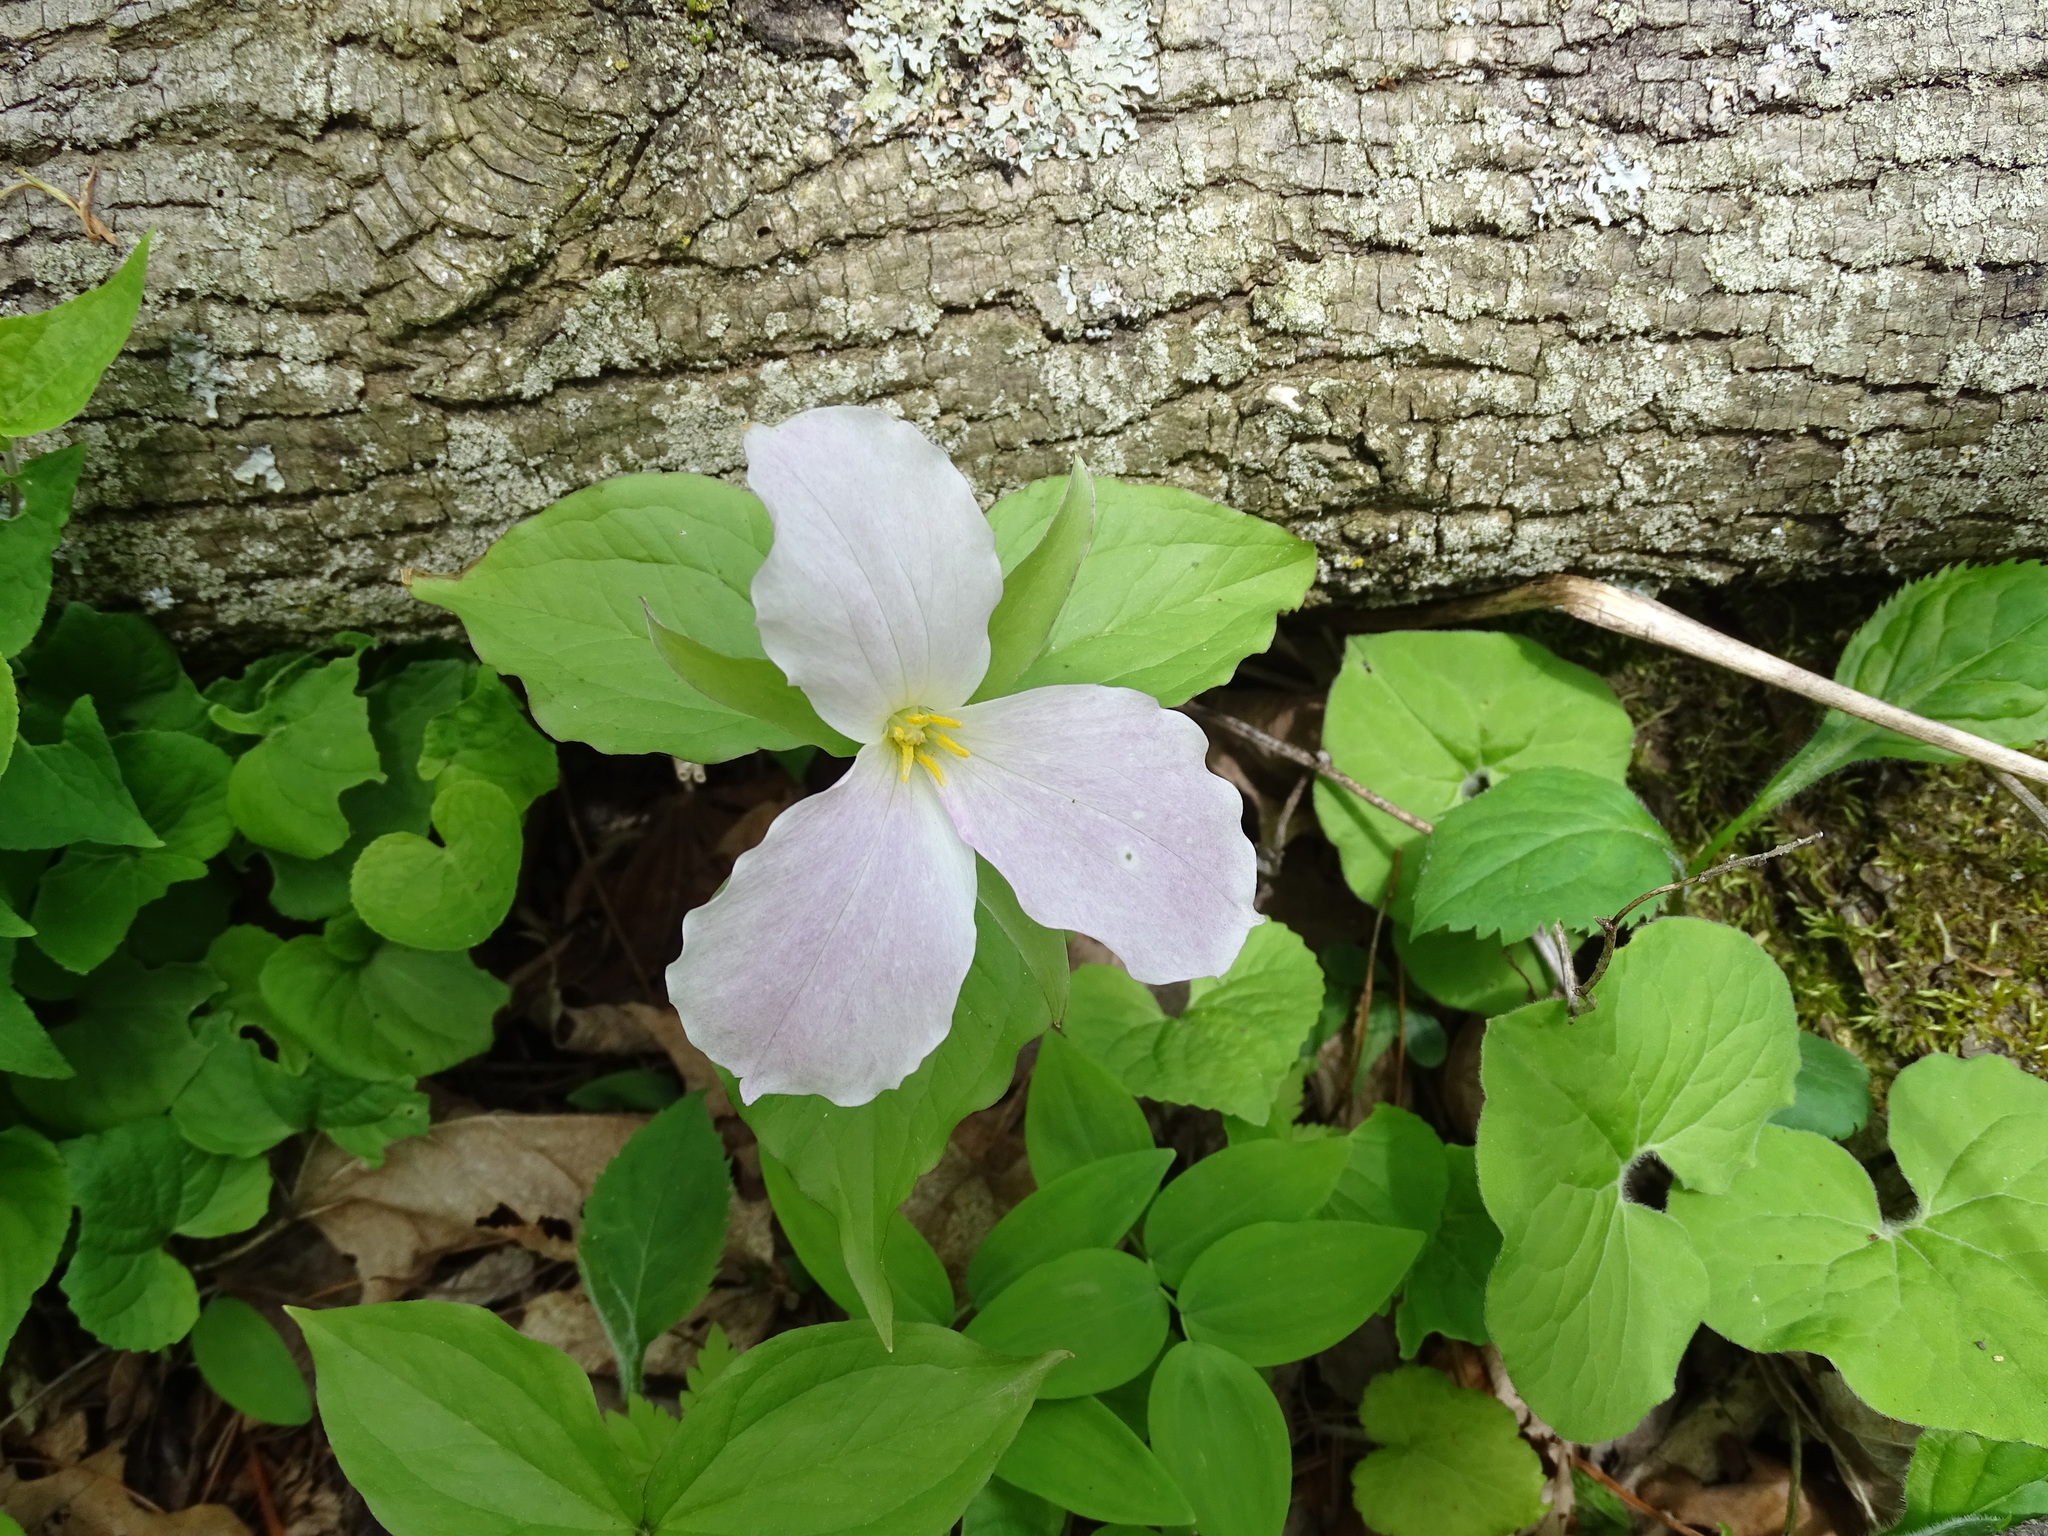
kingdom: Plantae
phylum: Tracheophyta
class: Liliopsida
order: Liliales
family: Melanthiaceae
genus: Trillium
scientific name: Trillium grandiflorum
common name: Great white trillium
